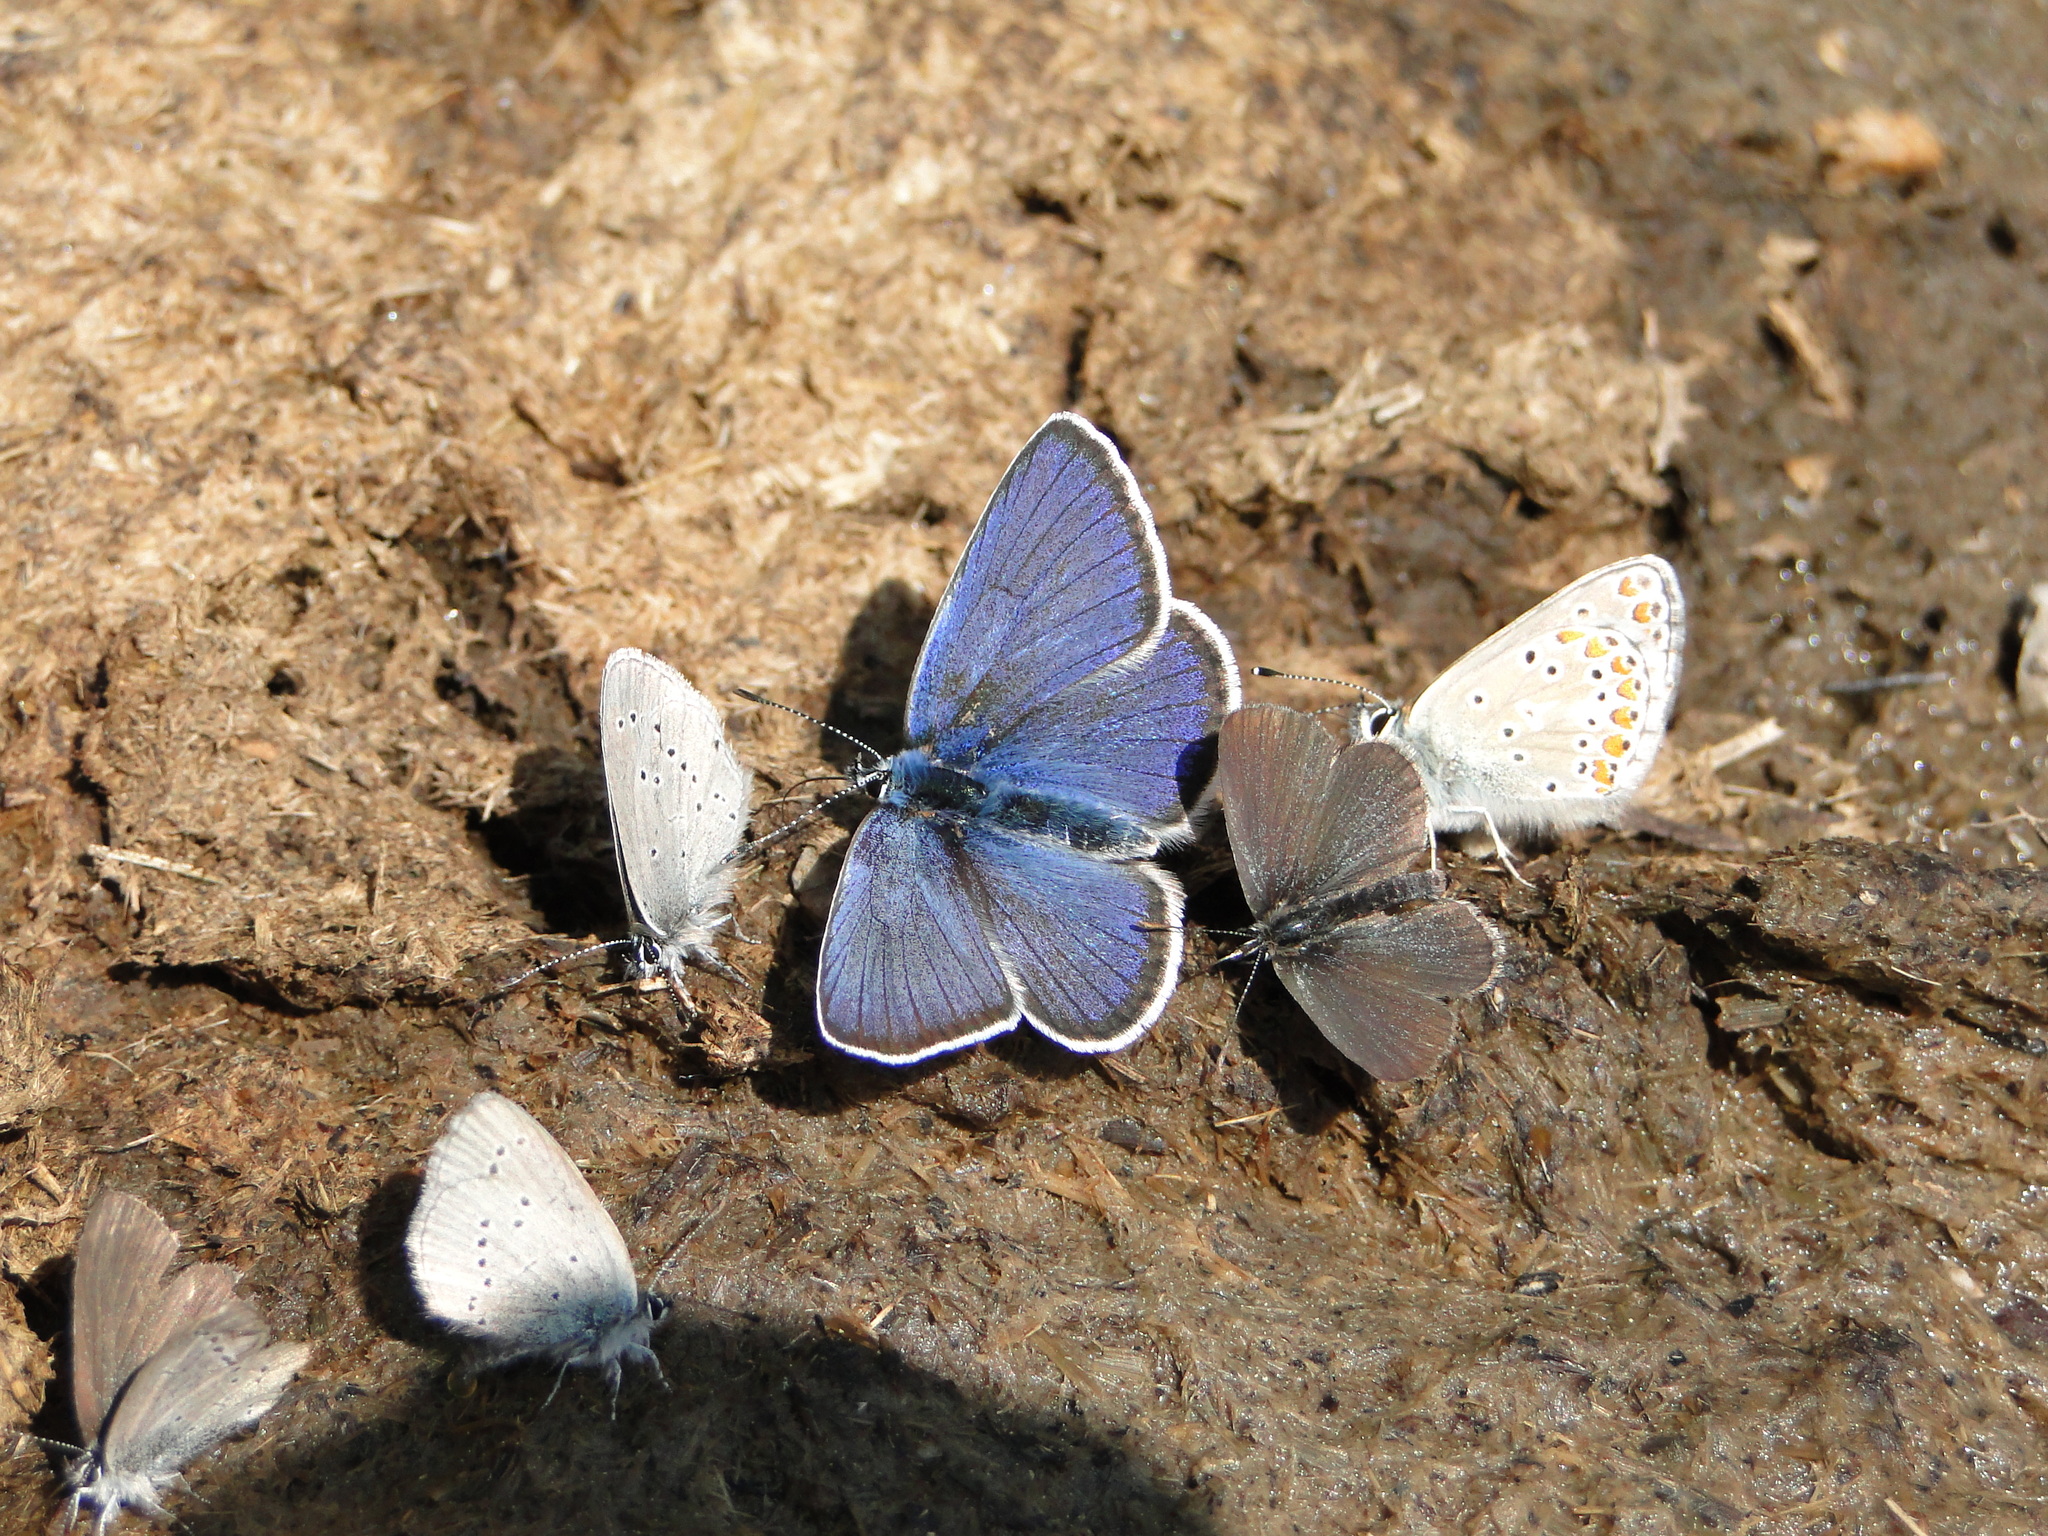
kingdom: Animalia
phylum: Arthropoda
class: Insecta
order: Lepidoptera
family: Lycaenidae
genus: Cyaniris
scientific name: Cyaniris semiargus
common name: Mazarine blue
